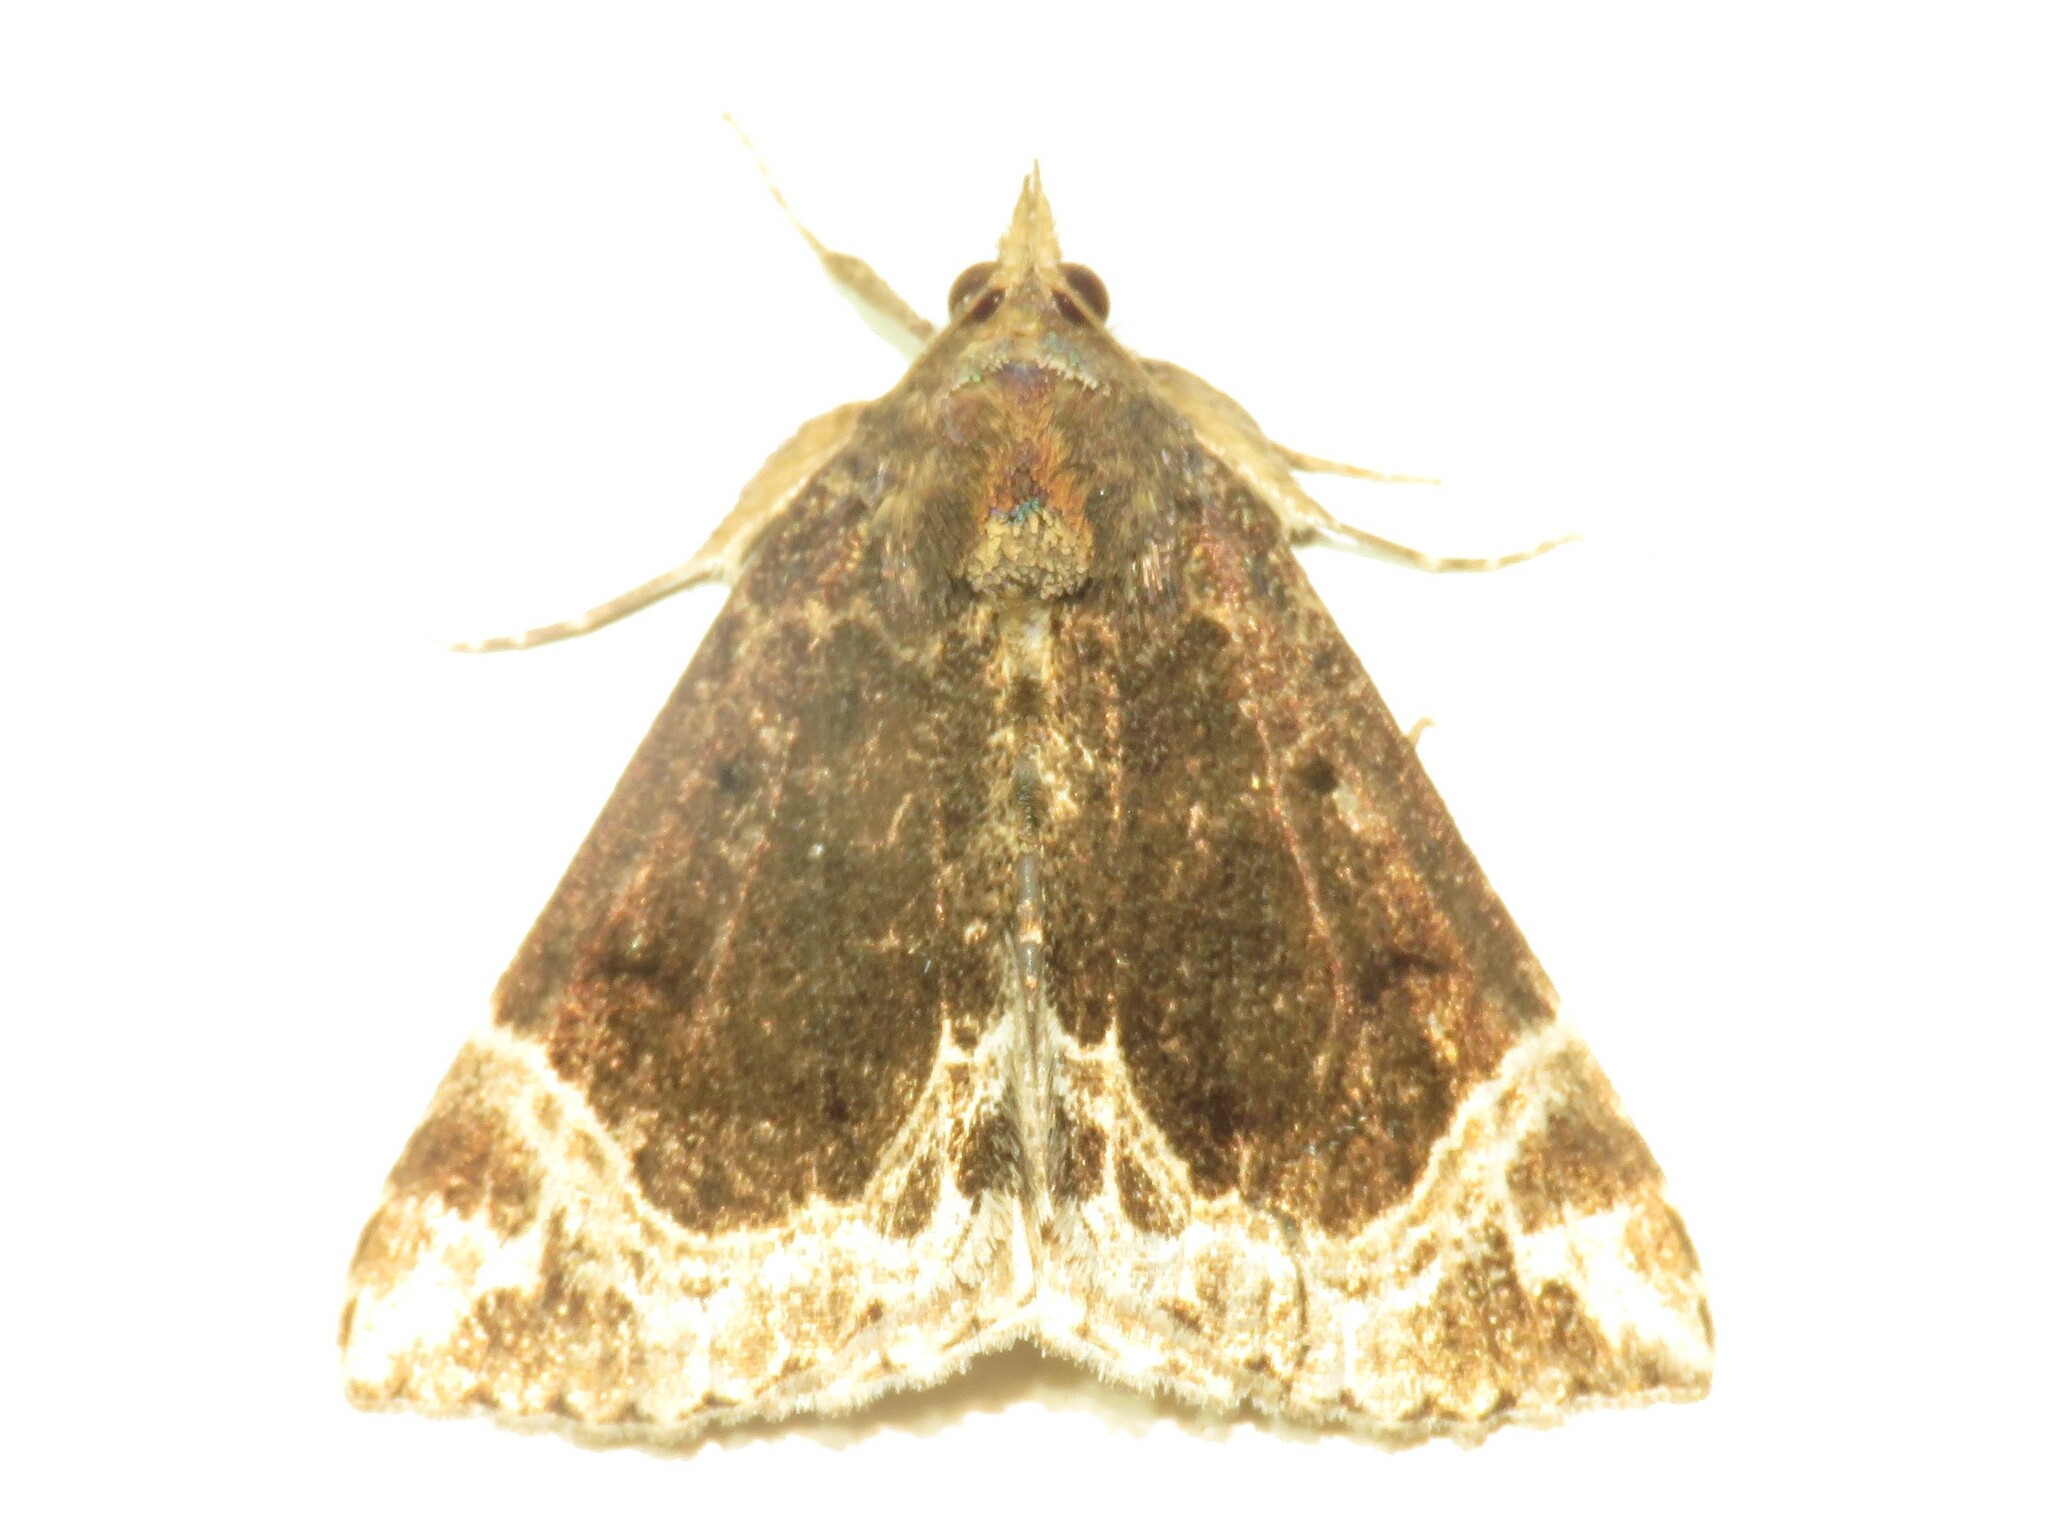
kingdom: Animalia
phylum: Arthropoda
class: Insecta
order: Lepidoptera
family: Erebidae
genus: Hypena
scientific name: Hypena abalienalis
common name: White-lined snout
